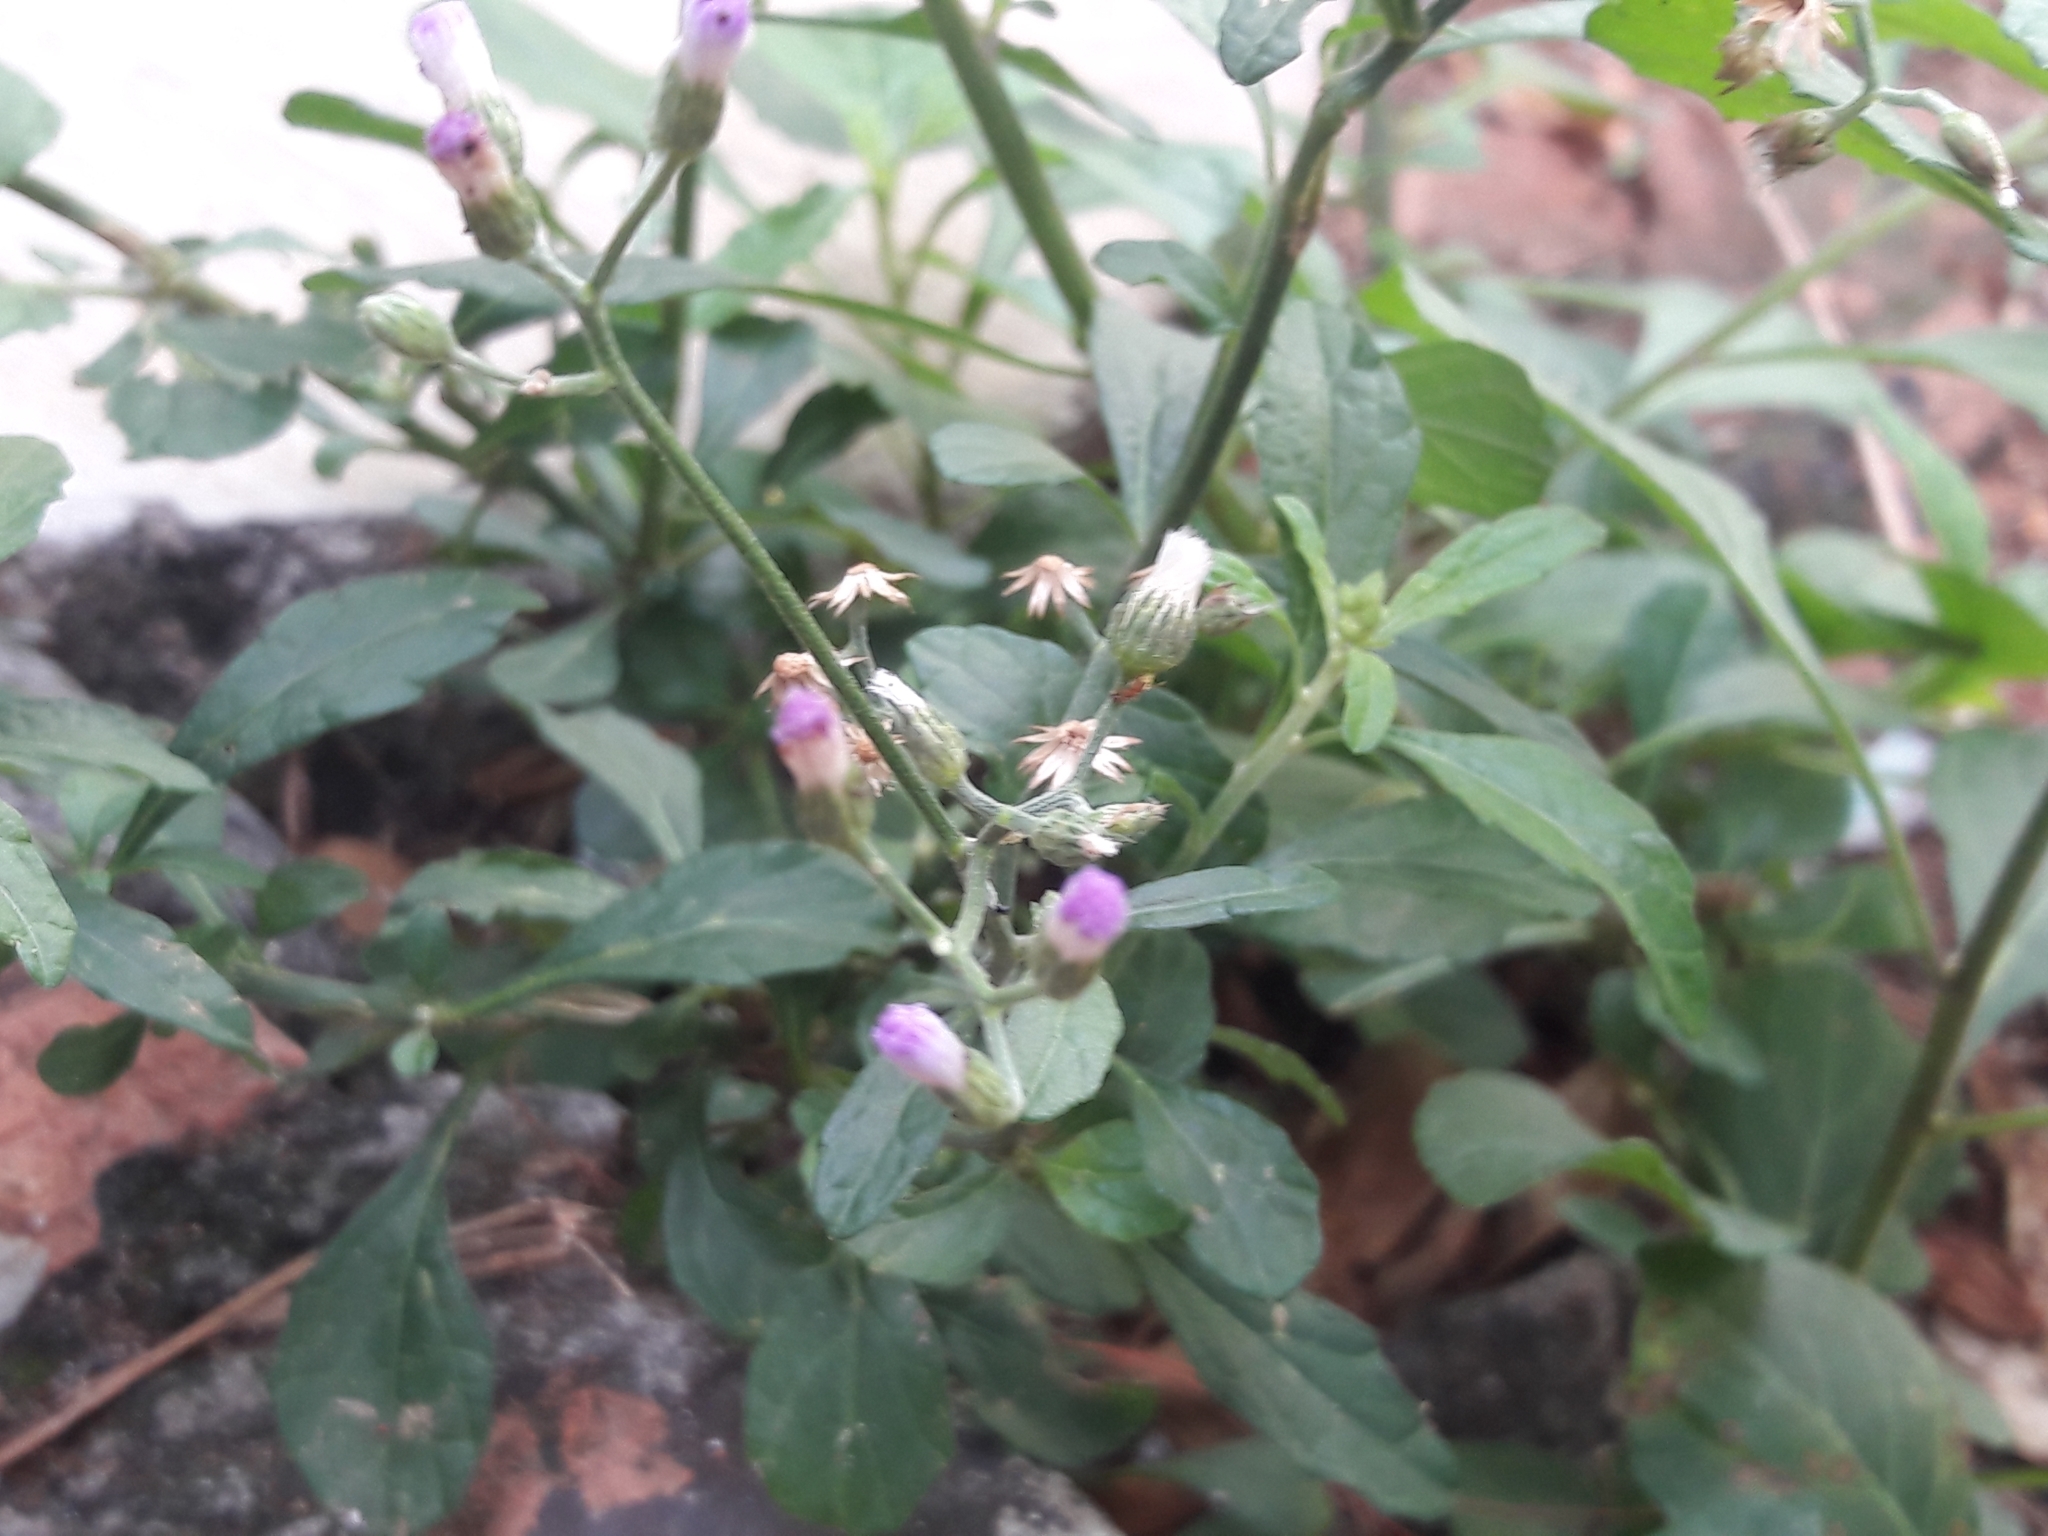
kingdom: Plantae
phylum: Tracheophyta
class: Magnoliopsida
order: Asterales
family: Asteraceae
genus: Cyanthillium
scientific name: Cyanthillium cinereum
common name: Little ironweed
